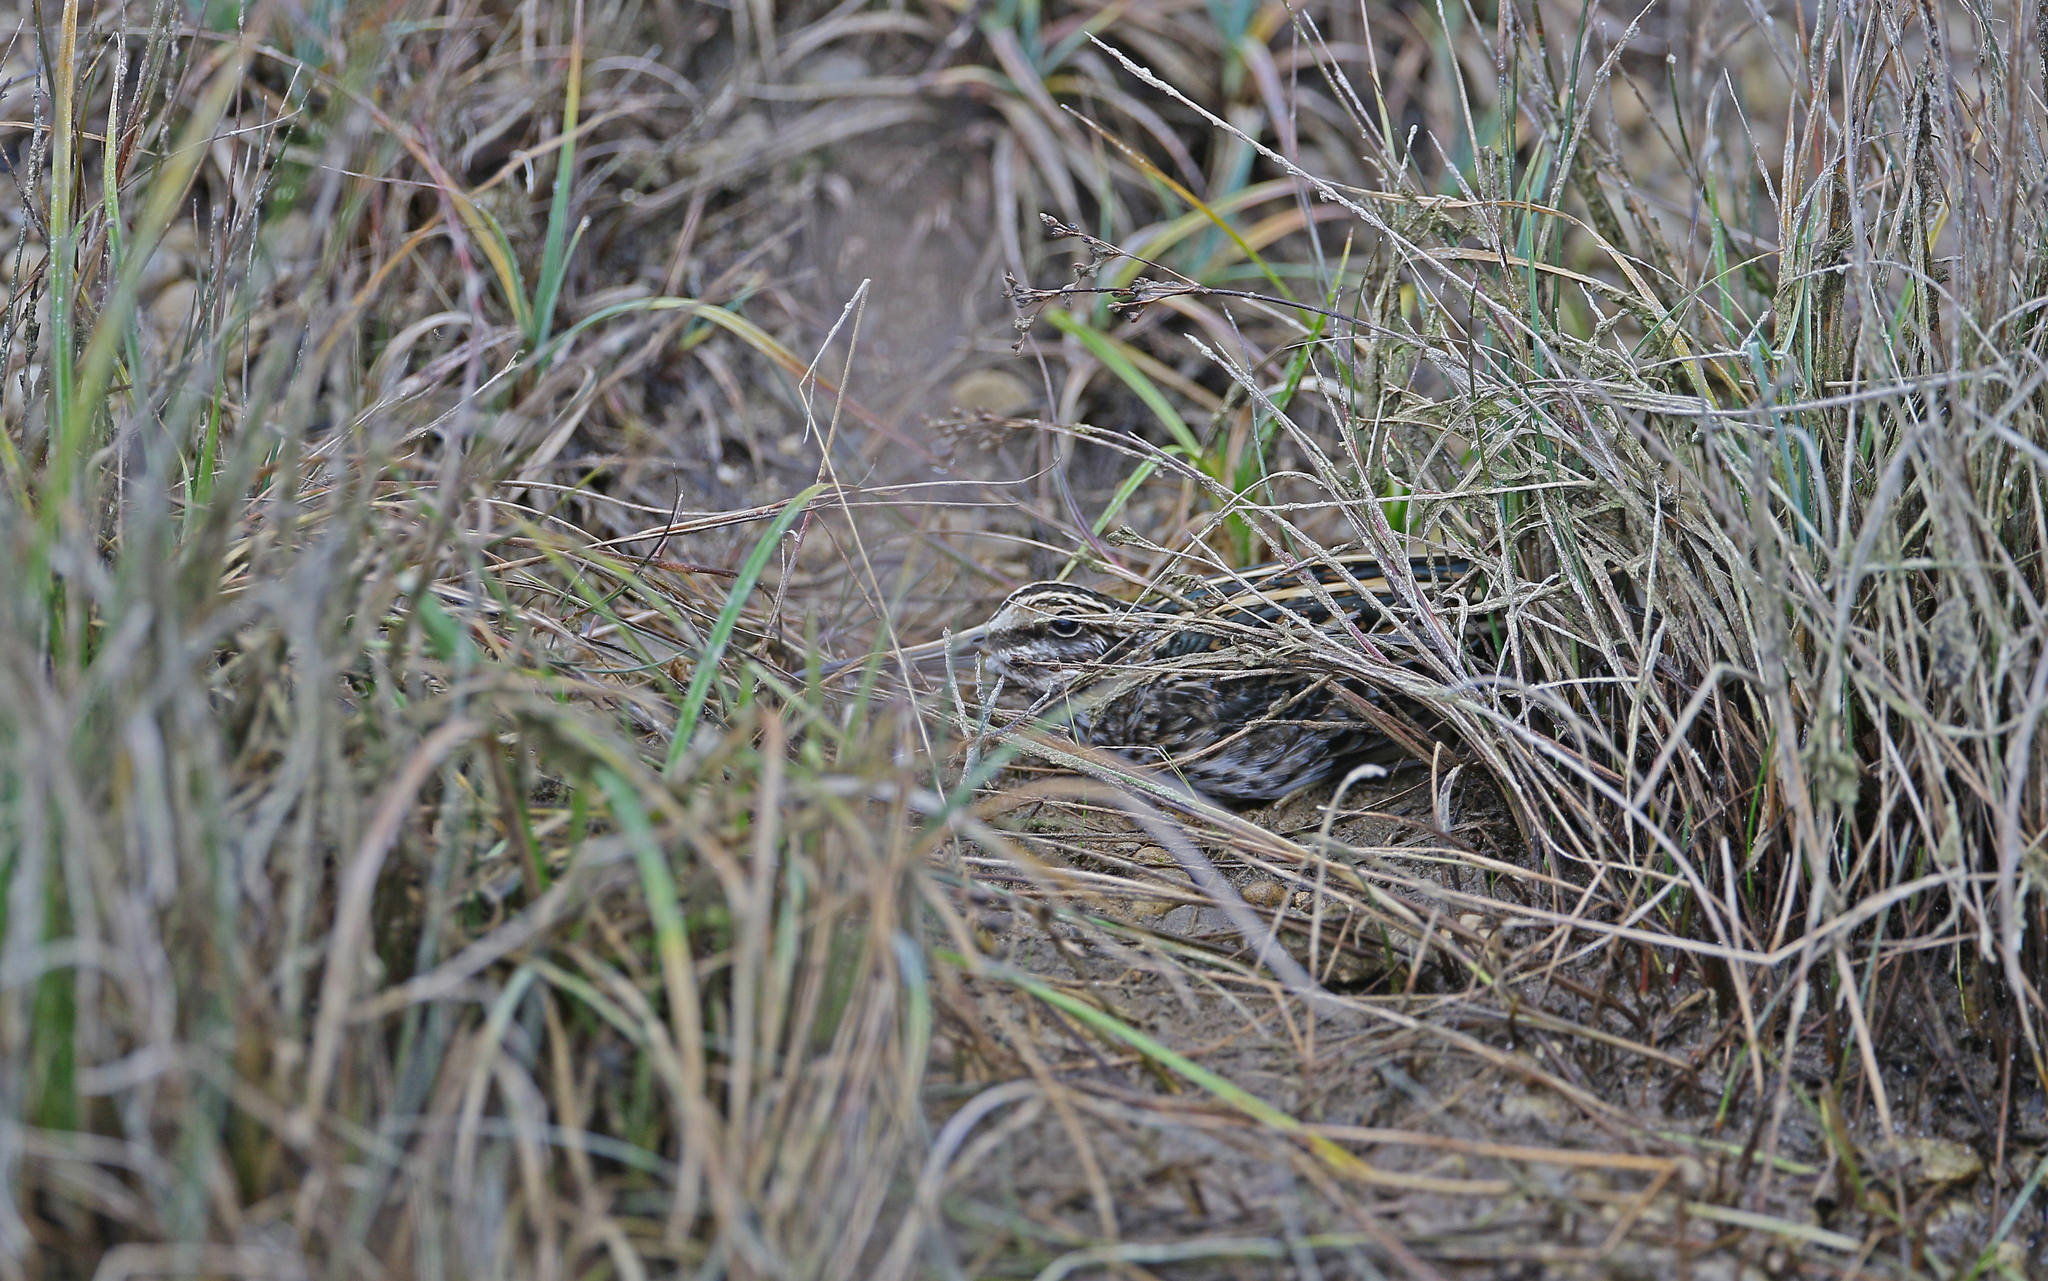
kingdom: Animalia
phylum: Chordata
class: Aves
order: Charadriiformes
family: Scolopacidae
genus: Lymnocryptes
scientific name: Lymnocryptes minimus
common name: Jack snipe
